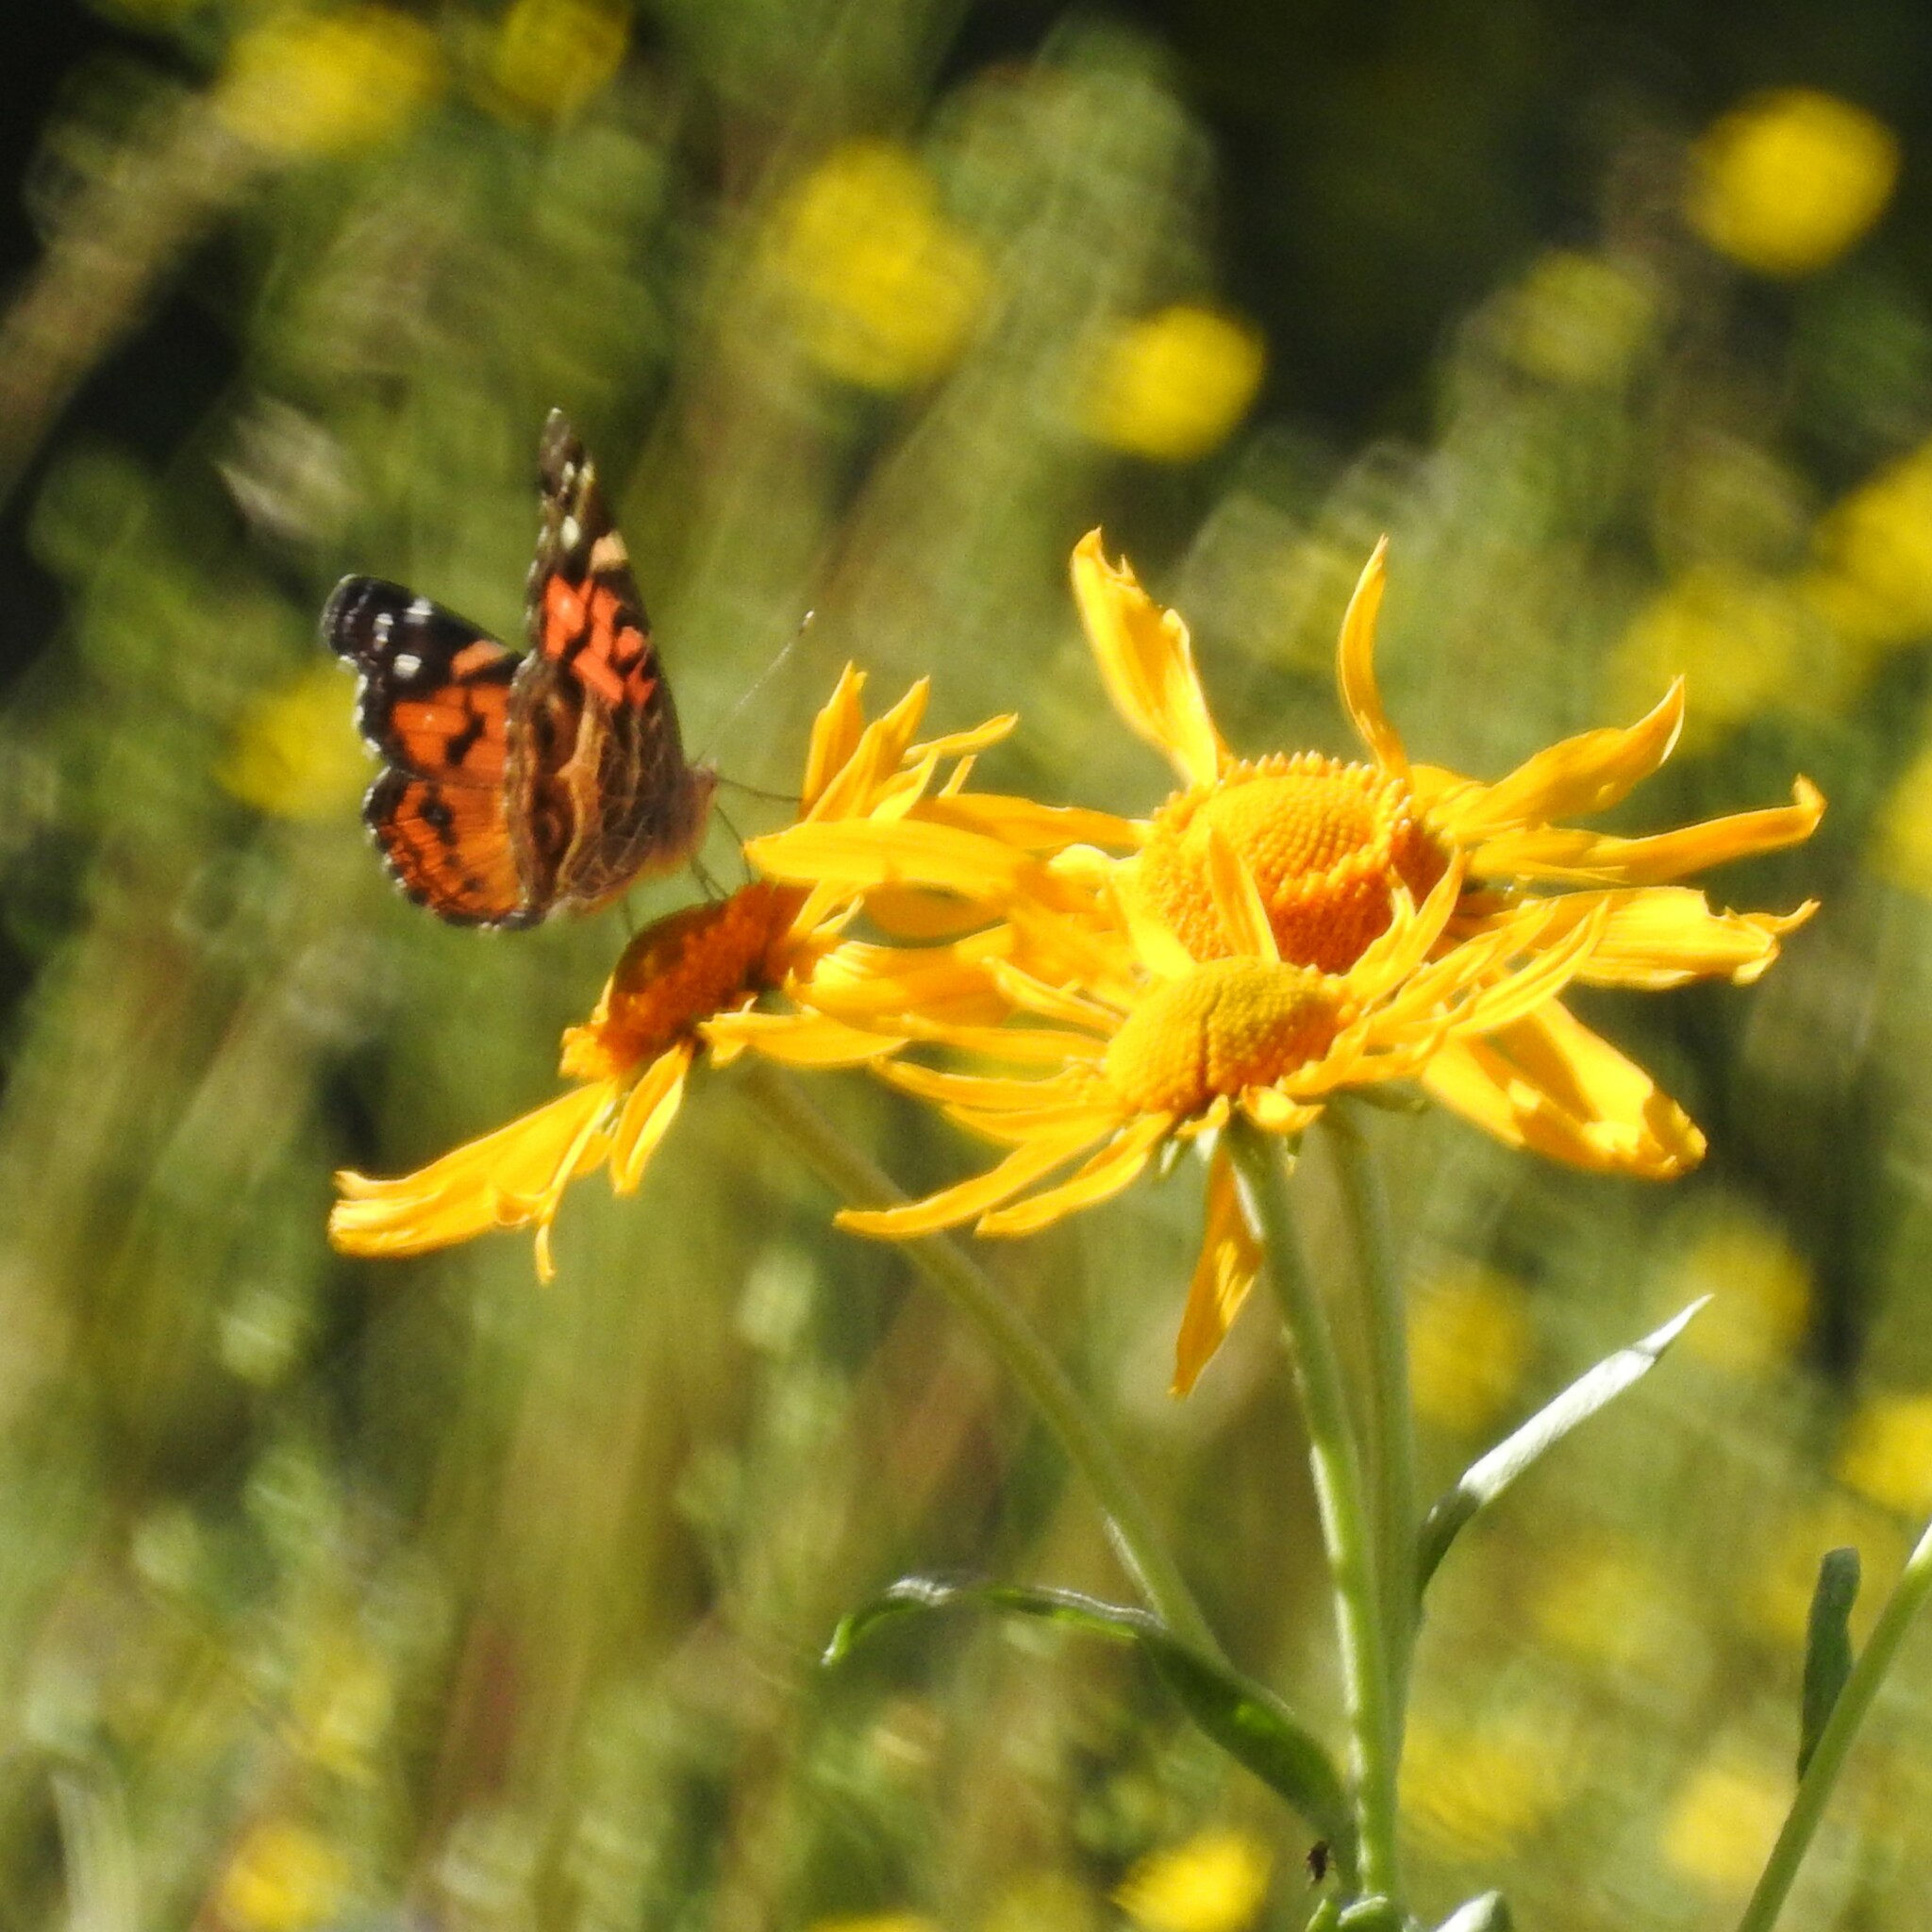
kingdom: Animalia
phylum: Arthropoda
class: Insecta
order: Lepidoptera
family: Nymphalidae
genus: Vanessa
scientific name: Vanessa virginiensis
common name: American lady
